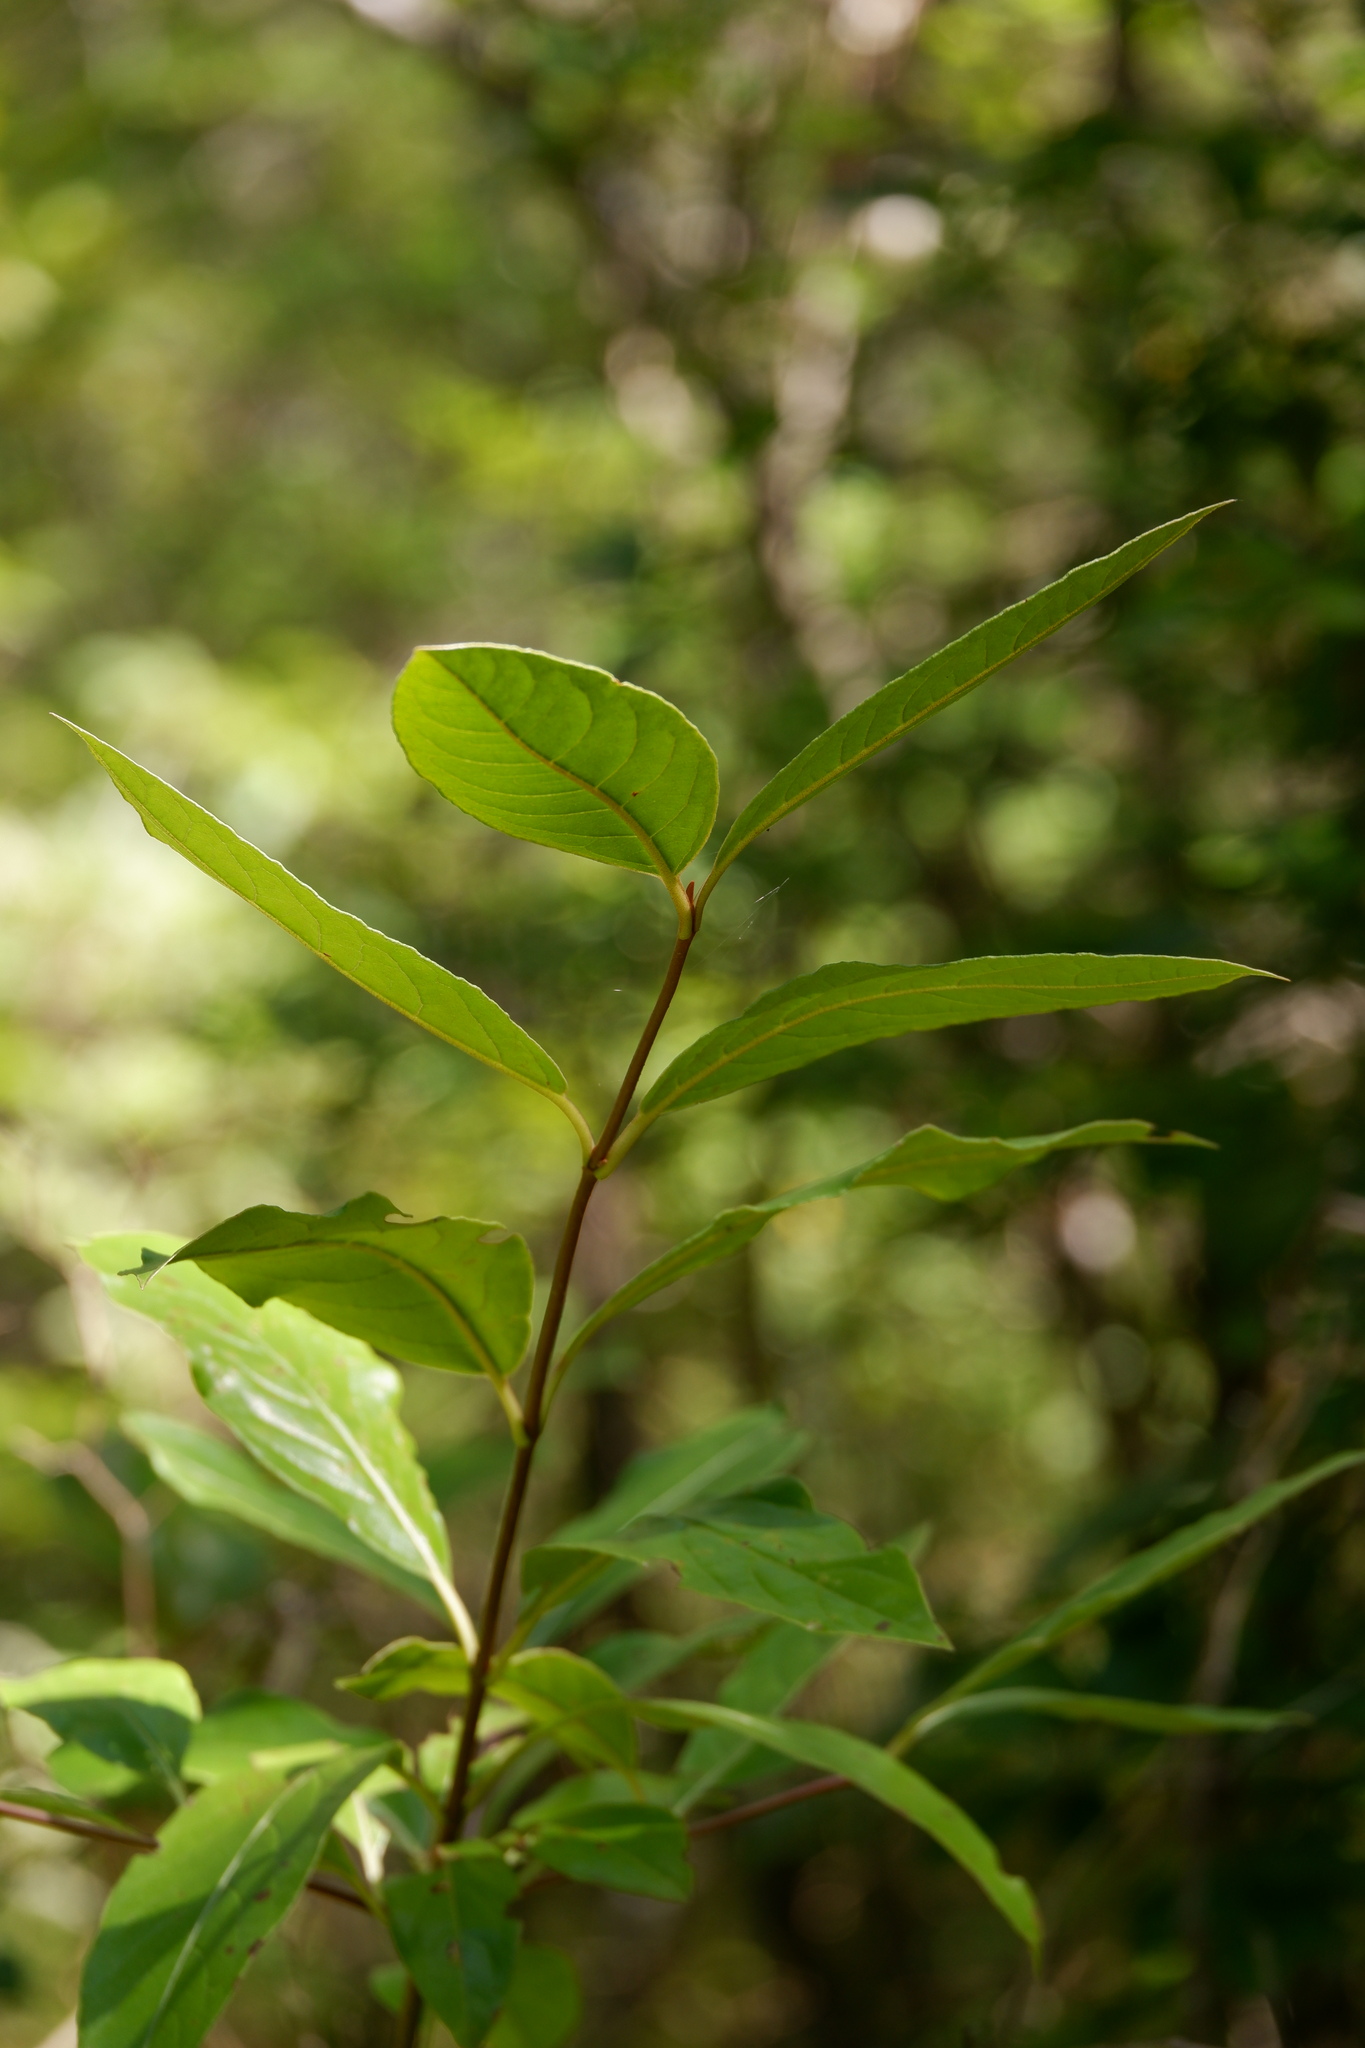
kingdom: Plantae
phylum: Tracheophyta
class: Magnoliopsida
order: Dipsacales
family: Viburnaceae
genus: Viburnum
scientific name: Viburnum nudum
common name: Possum haw
